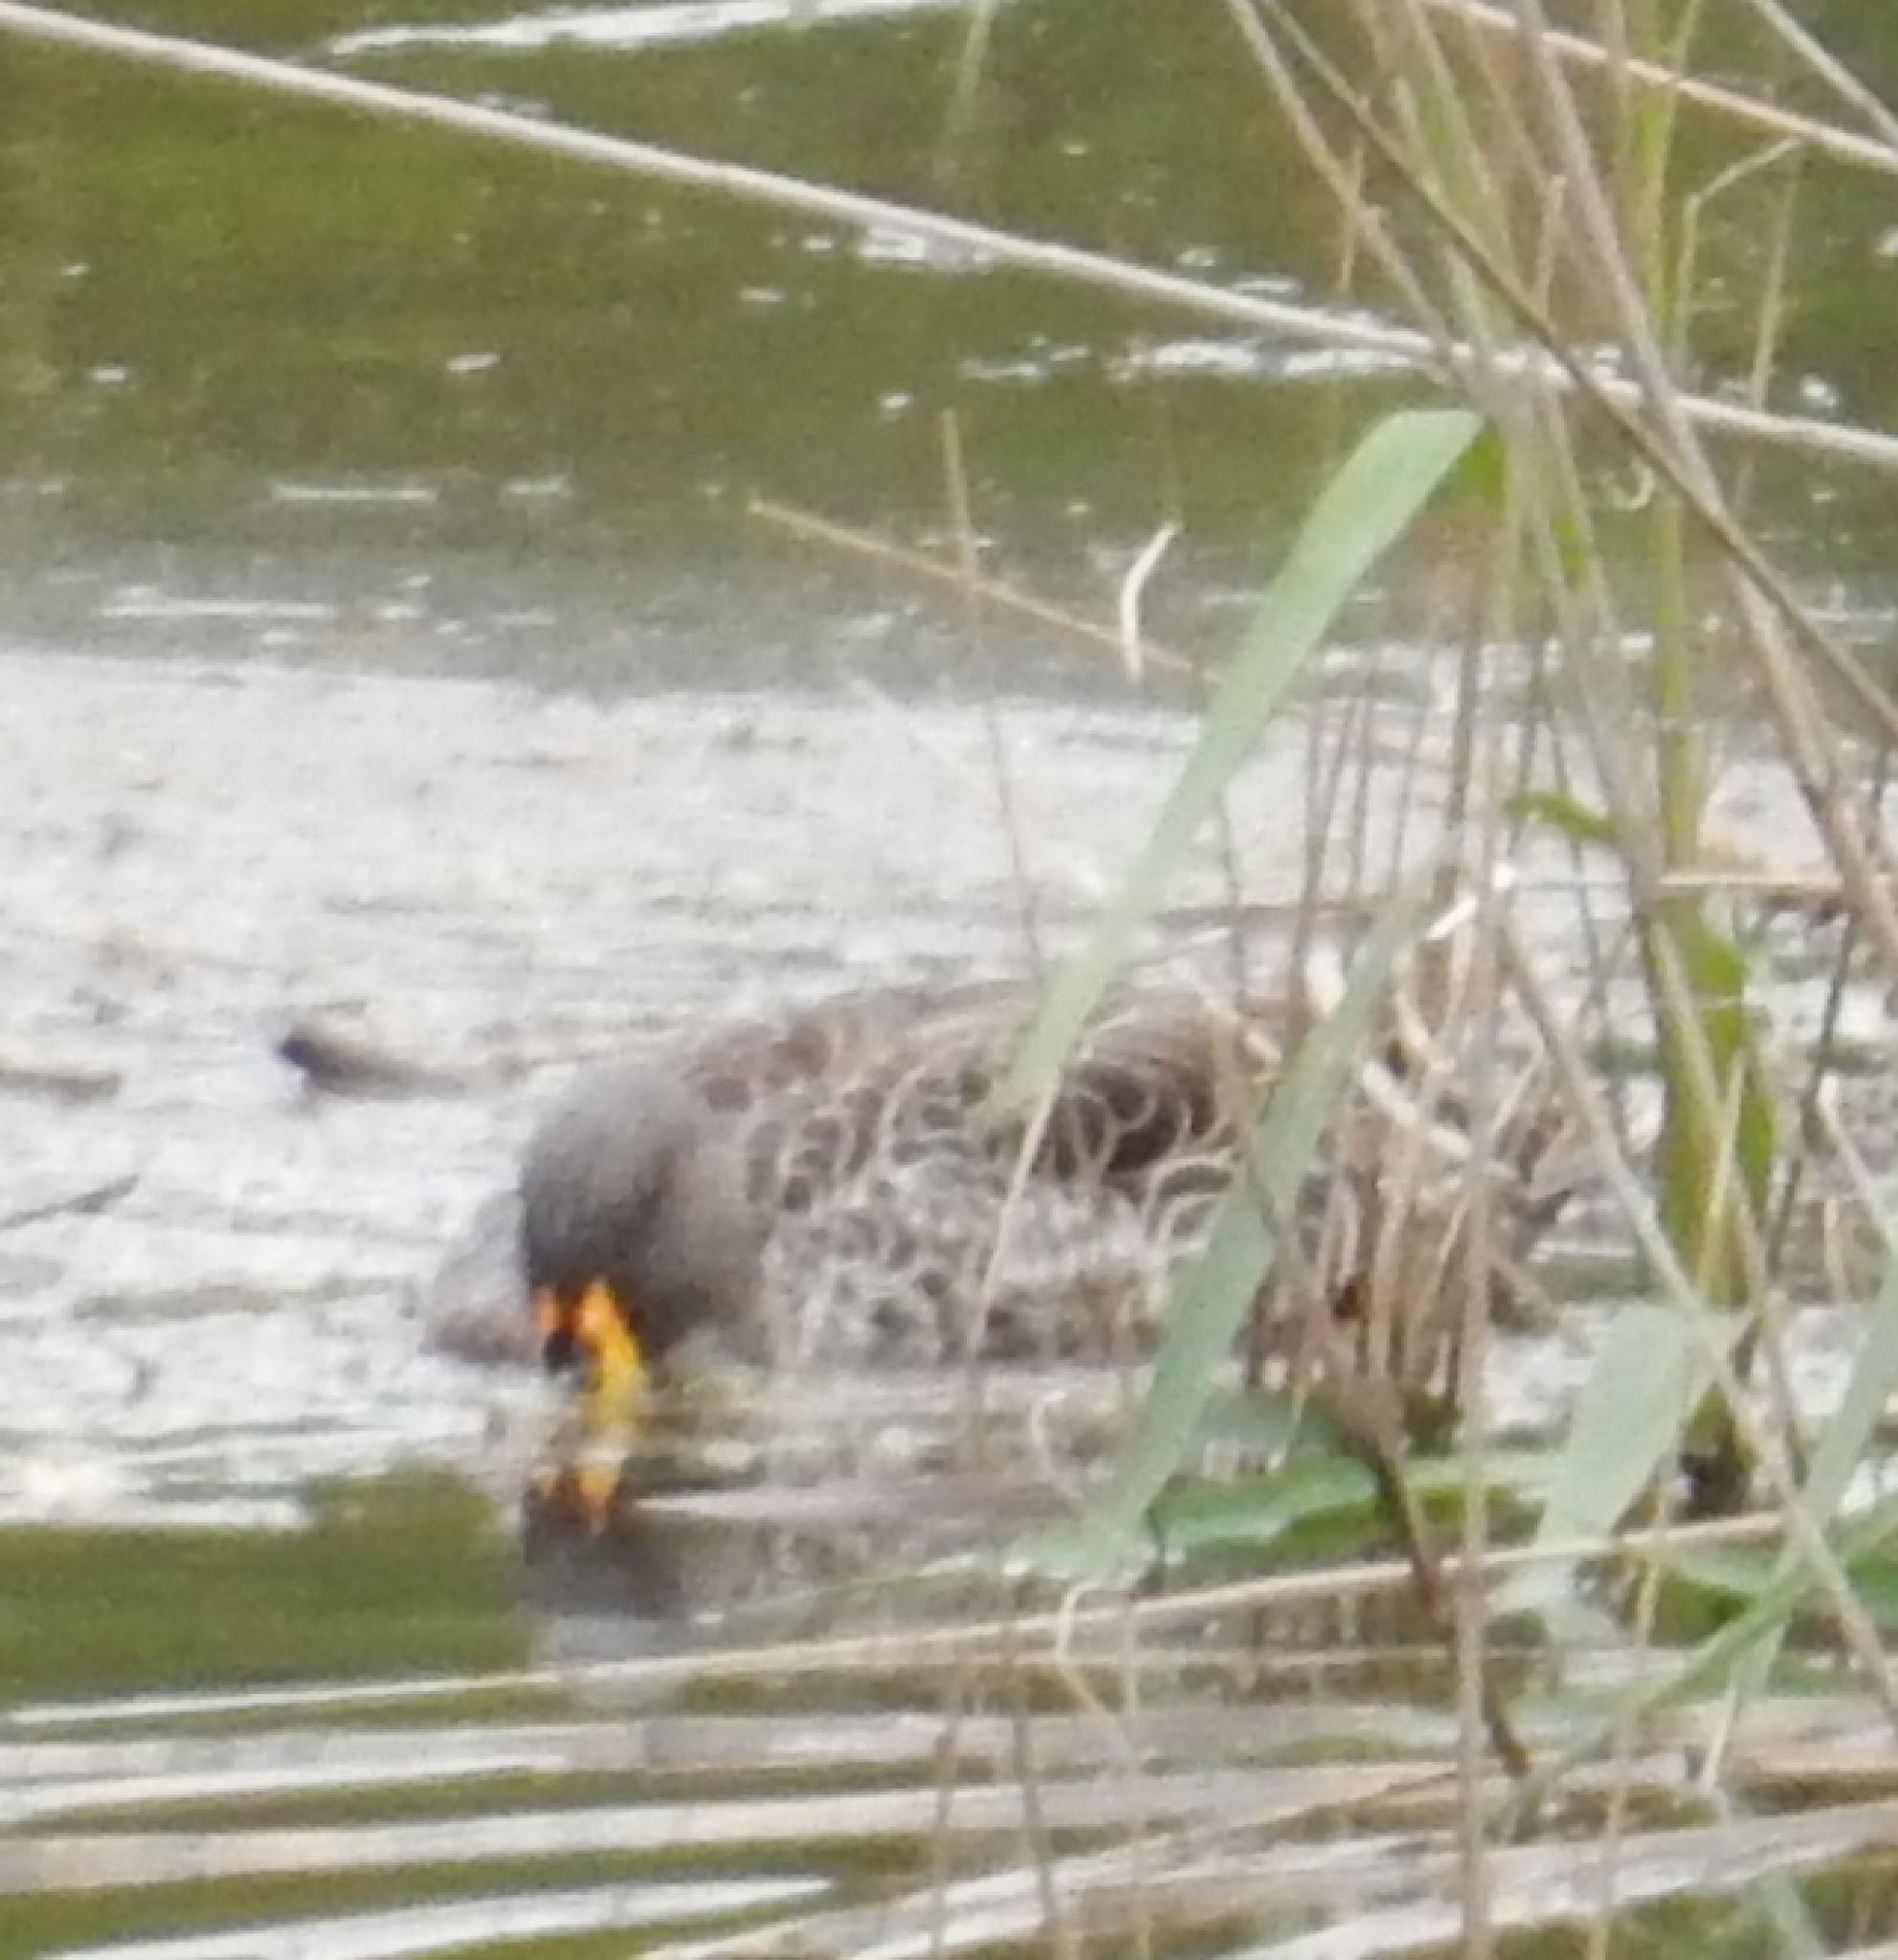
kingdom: Animalia
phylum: Chordata
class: Aves
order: Anseriformes
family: Anatidae
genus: Anas
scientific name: Anas undulata
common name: Yellow-billed duck
